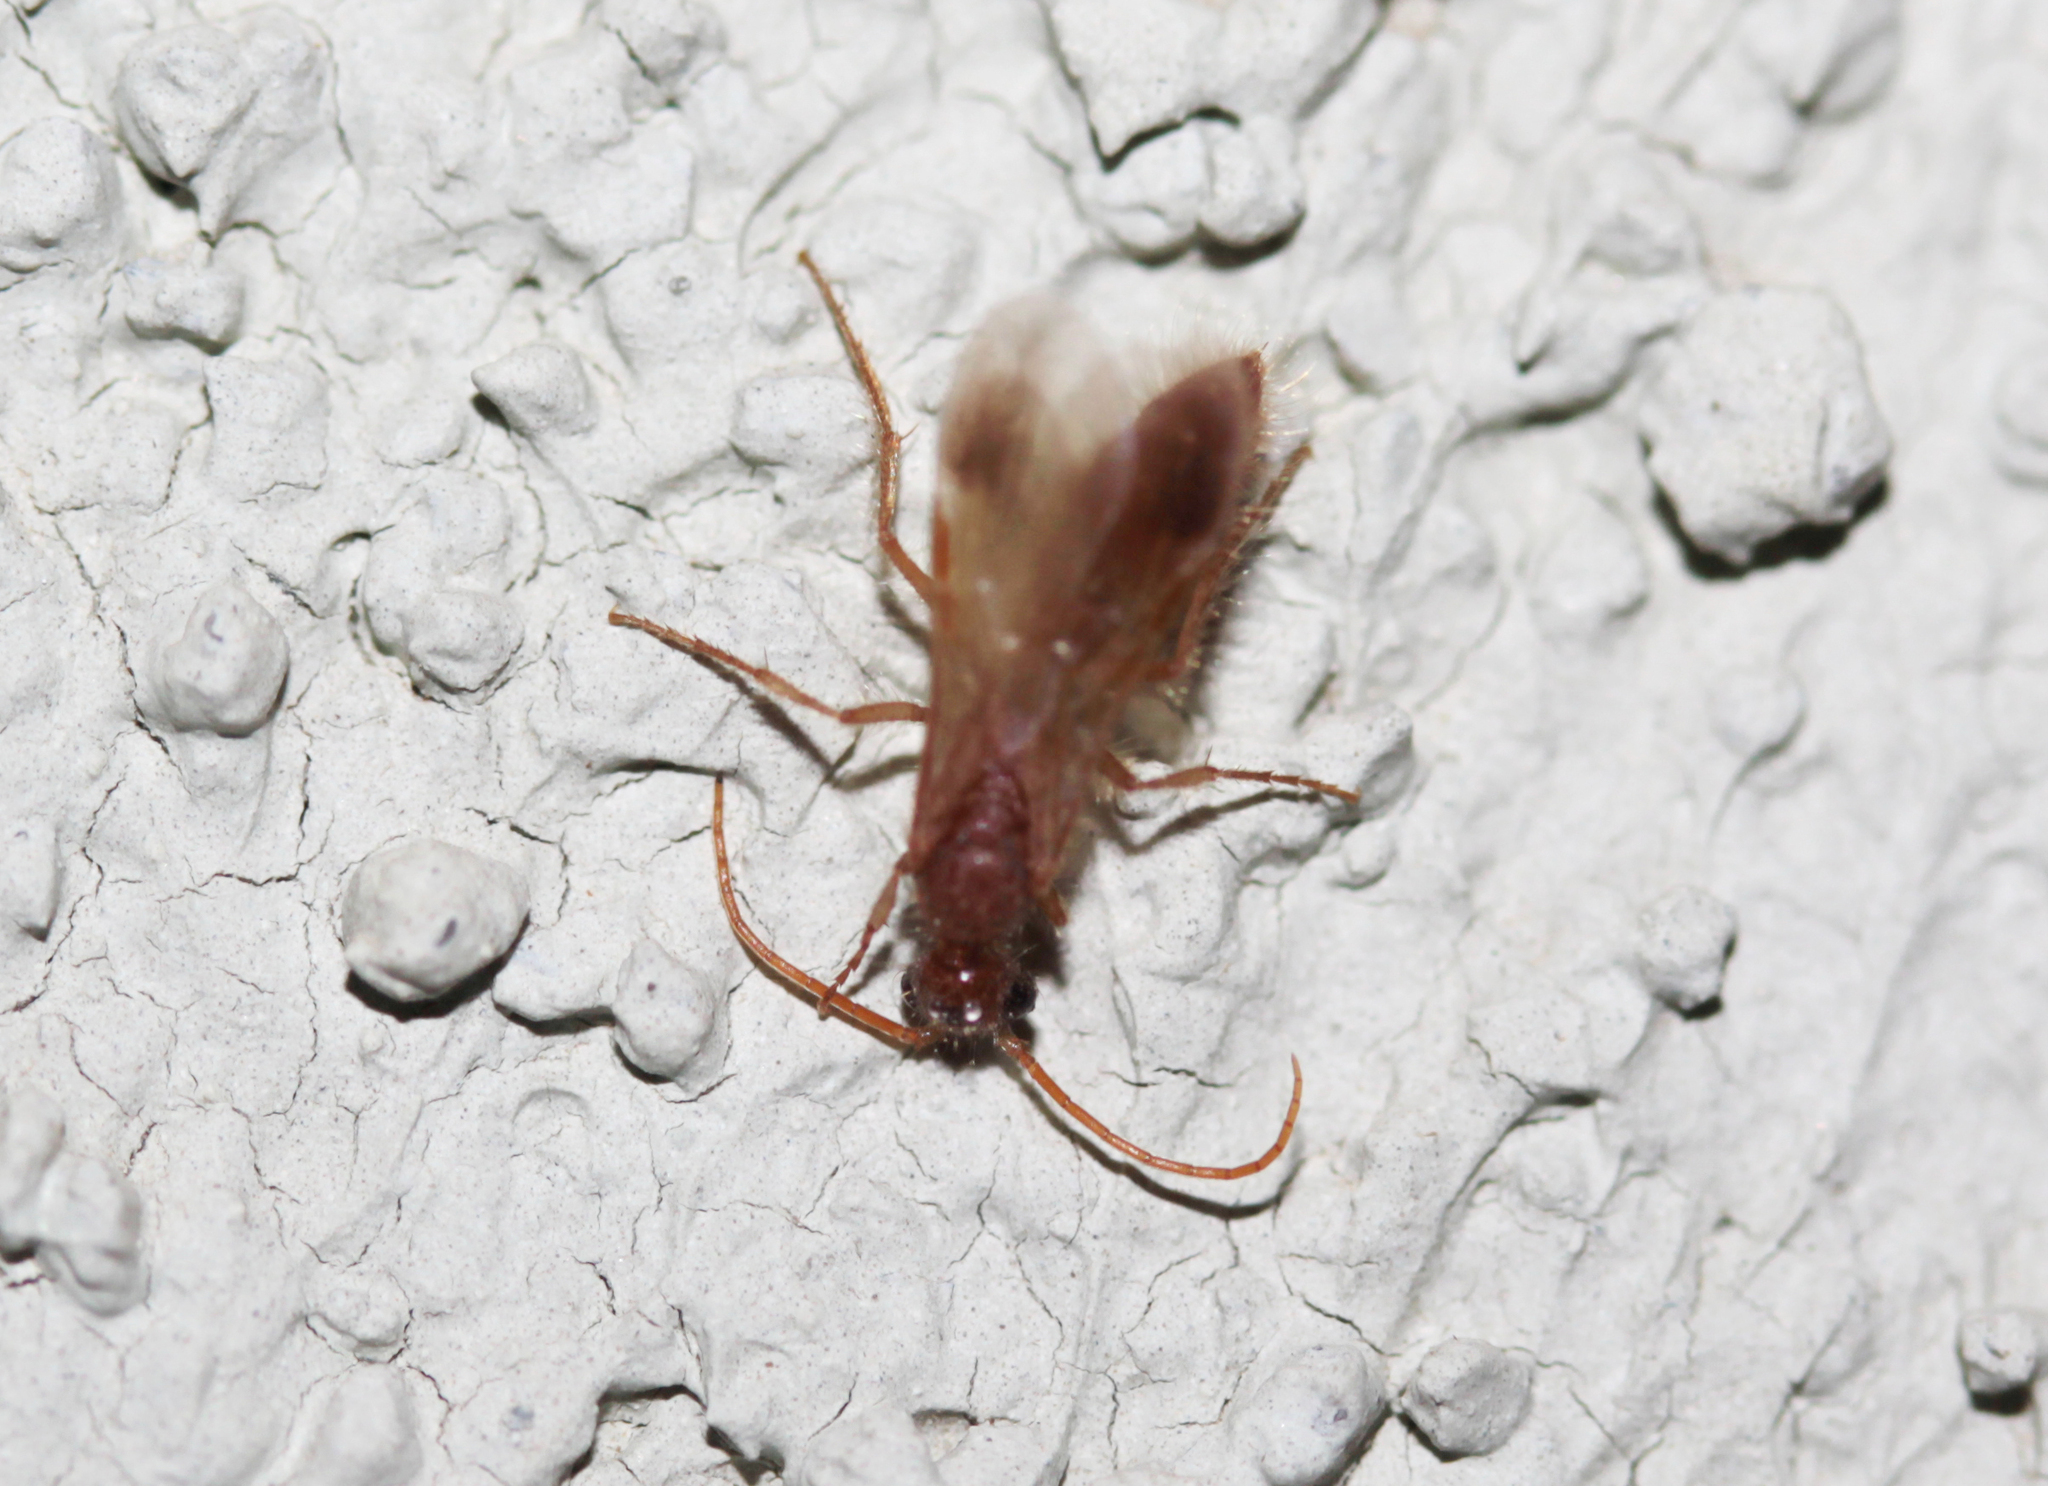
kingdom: Animalia
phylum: Arthropoda
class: Insecta
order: Hymenoptera
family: Chyphotidae
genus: Chyphotes
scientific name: Chyphotes
